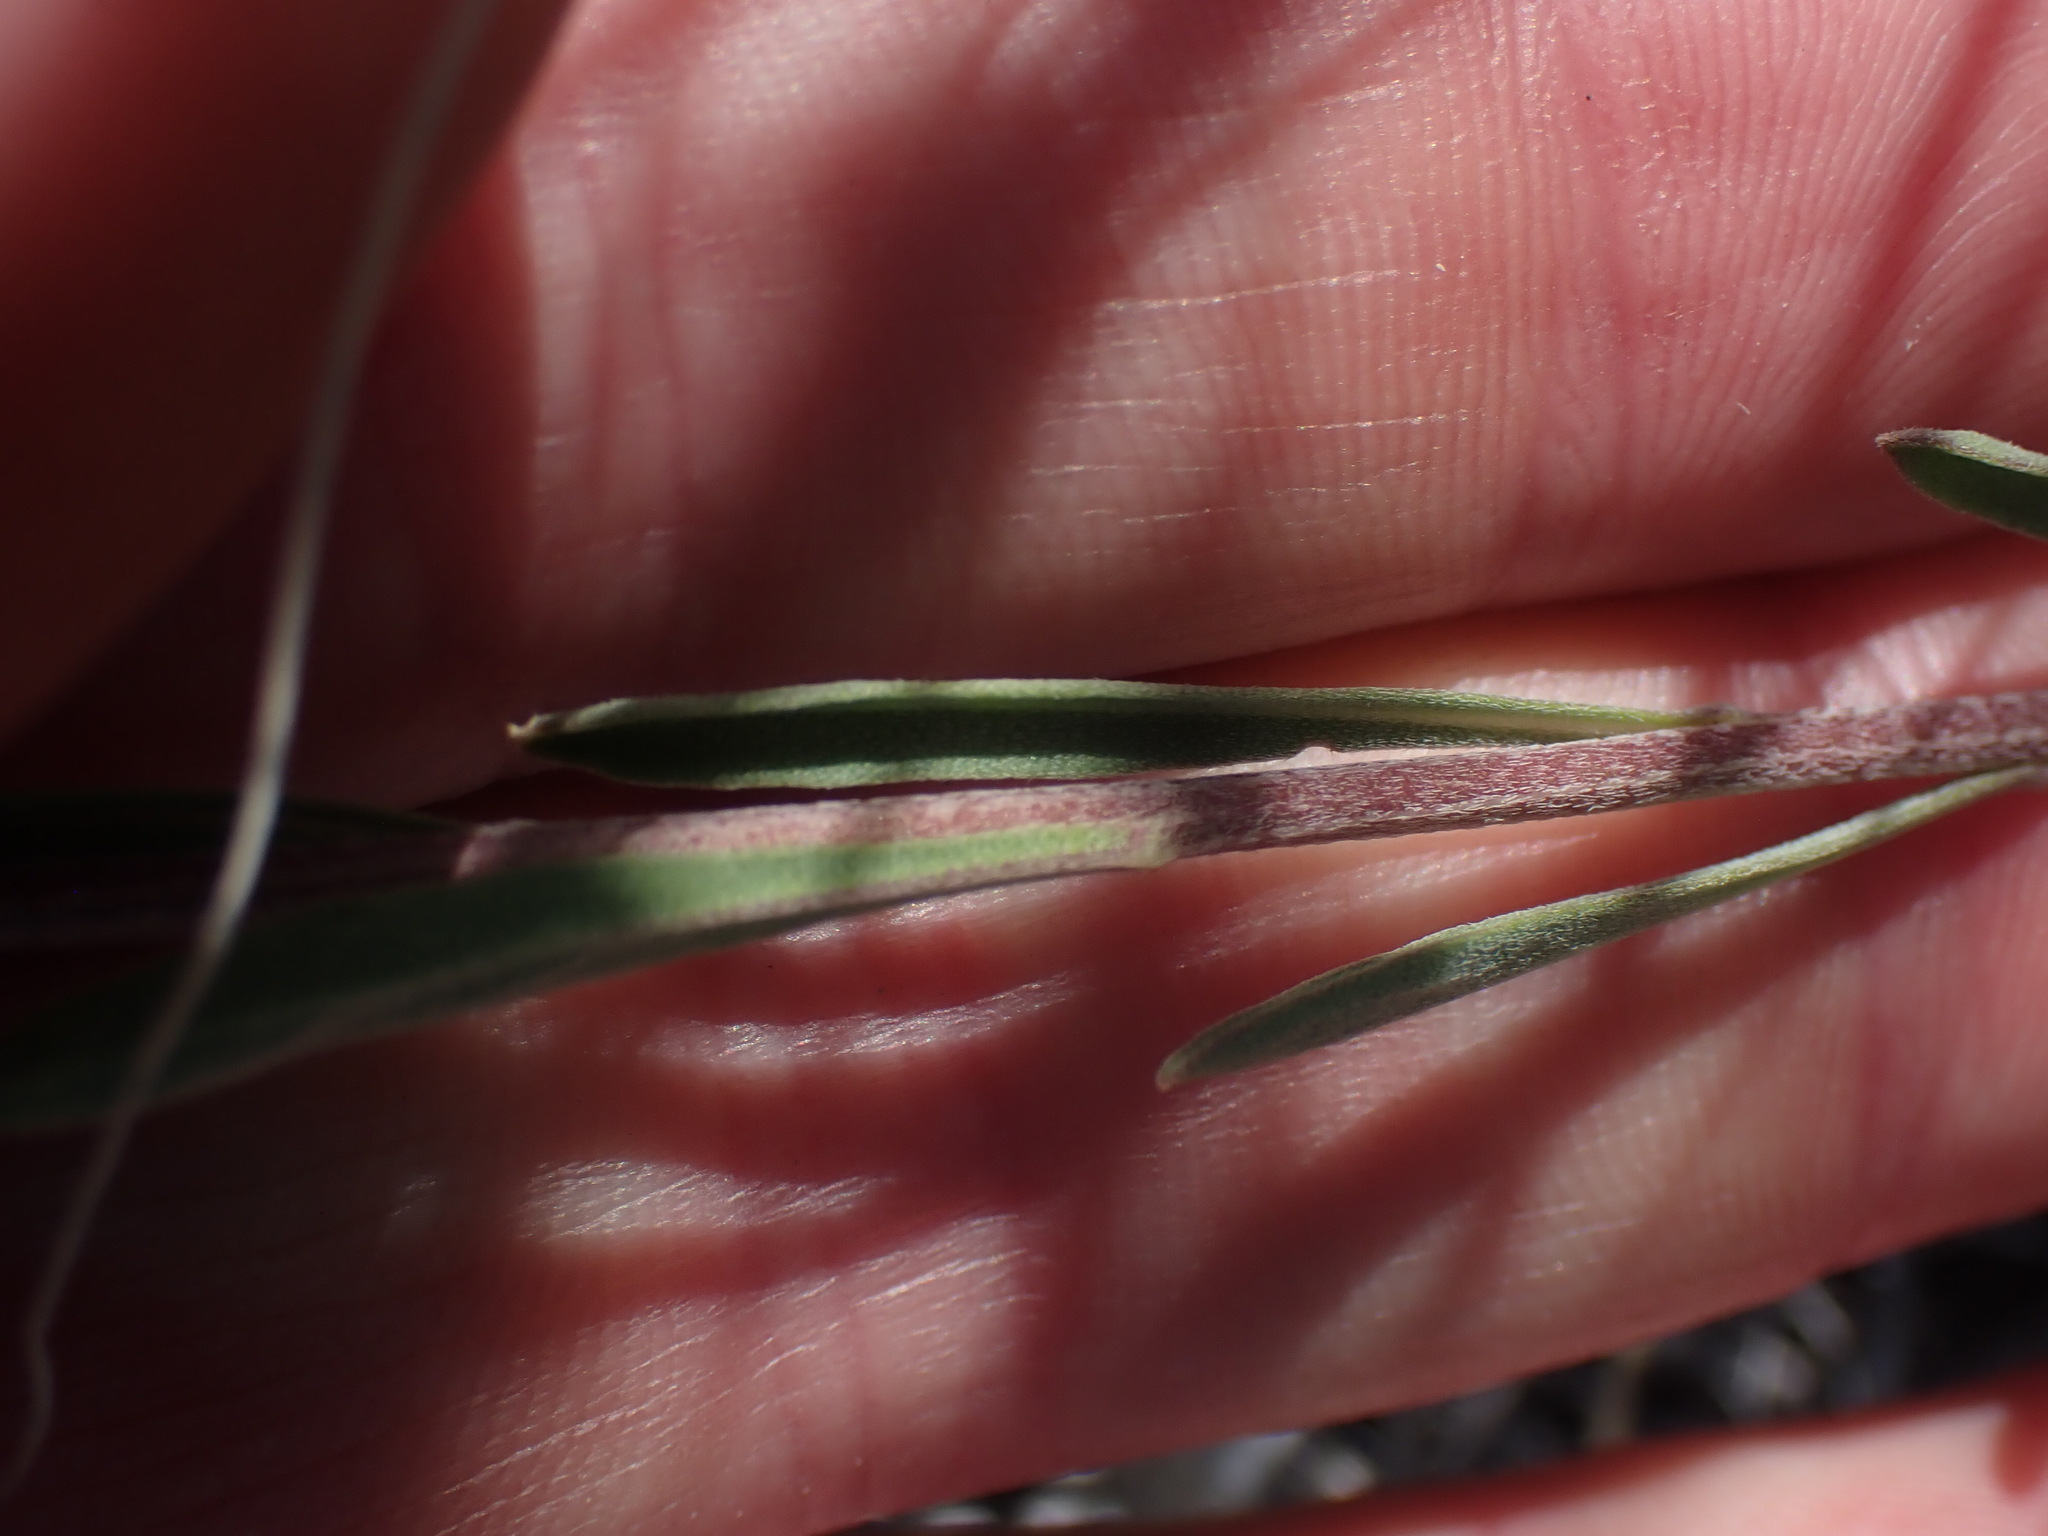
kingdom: Plantae
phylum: Tracheophyta
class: Magnoliopsida
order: Brassicales
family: Brassicaceae
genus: Erysimum
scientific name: Erysimum inconspicuum
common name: Shy wallflower
